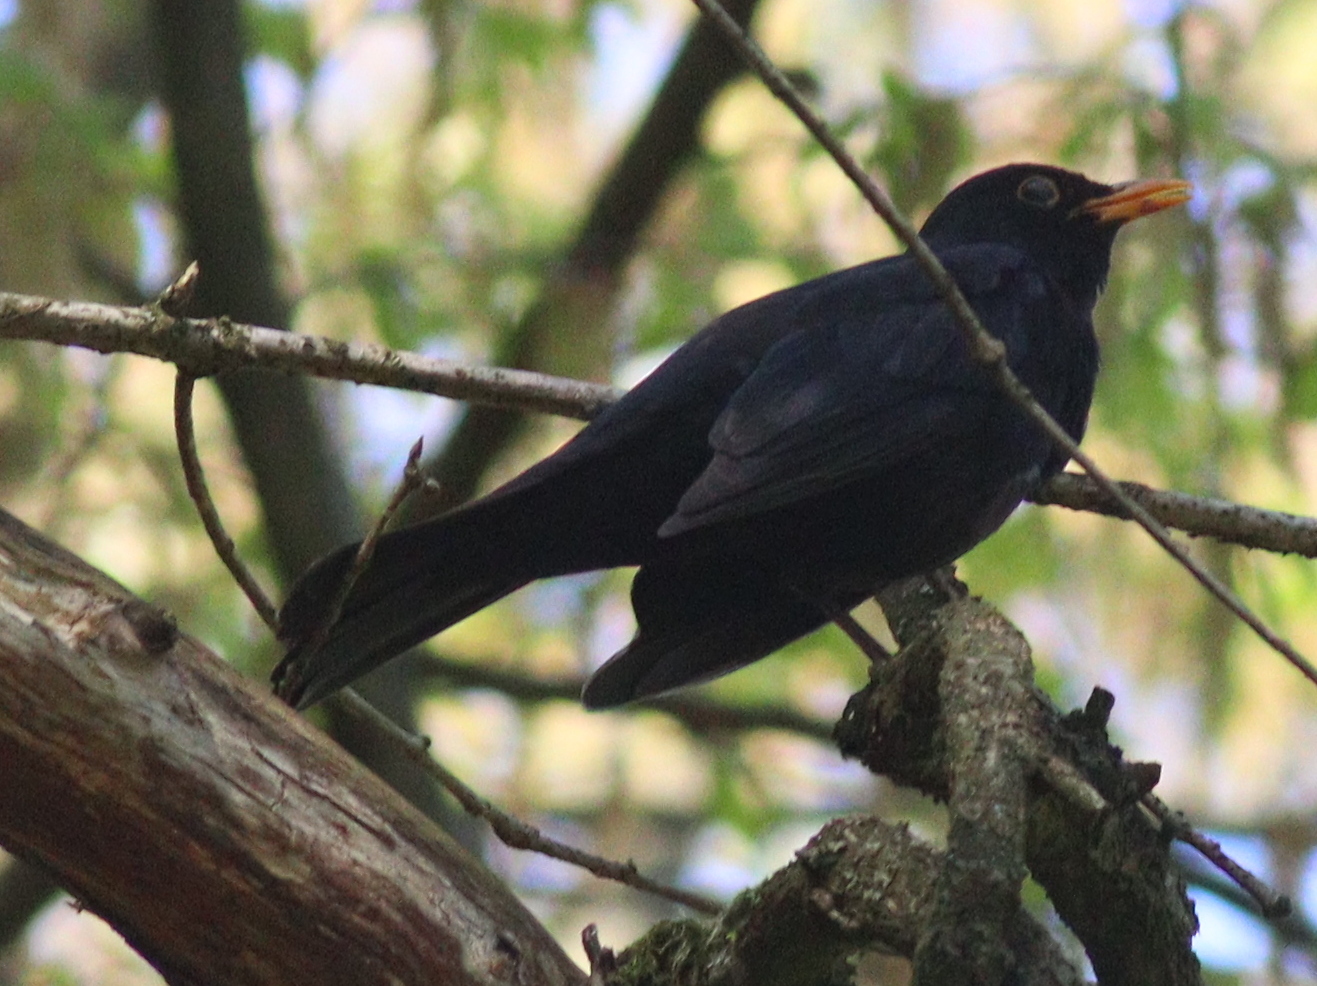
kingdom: Animalia
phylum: Chordata
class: Aves
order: Passeriformes
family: Turdidae
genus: Turdus
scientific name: Turdus merula
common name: Common blackbird
